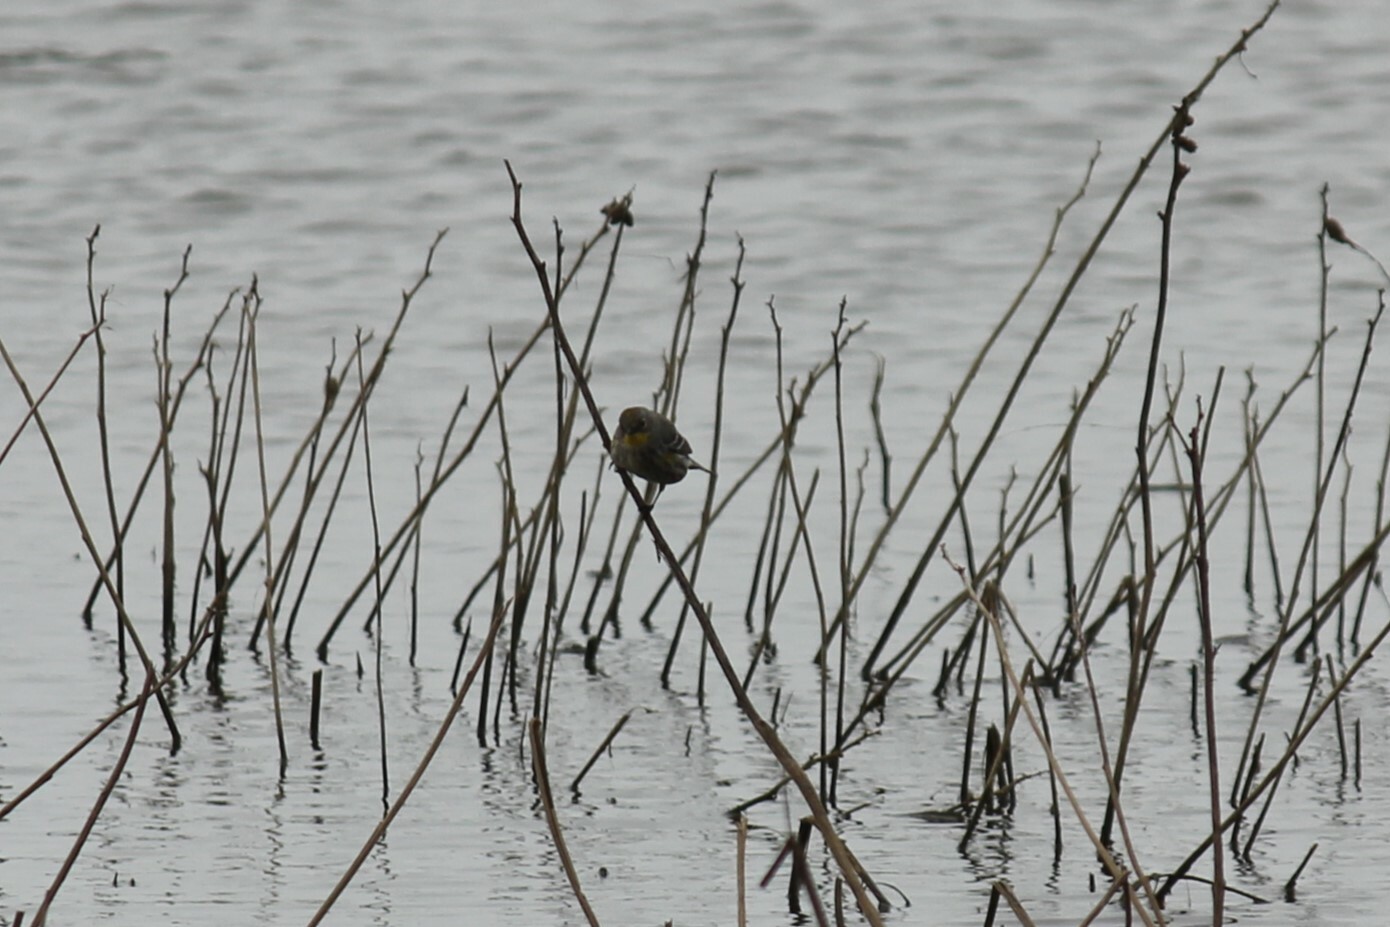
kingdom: Animalia
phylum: Chordata
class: Aves
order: Passeriformes
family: Parulidae
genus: Setophaga
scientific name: Setophaga coronata
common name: Myrtle warbler
